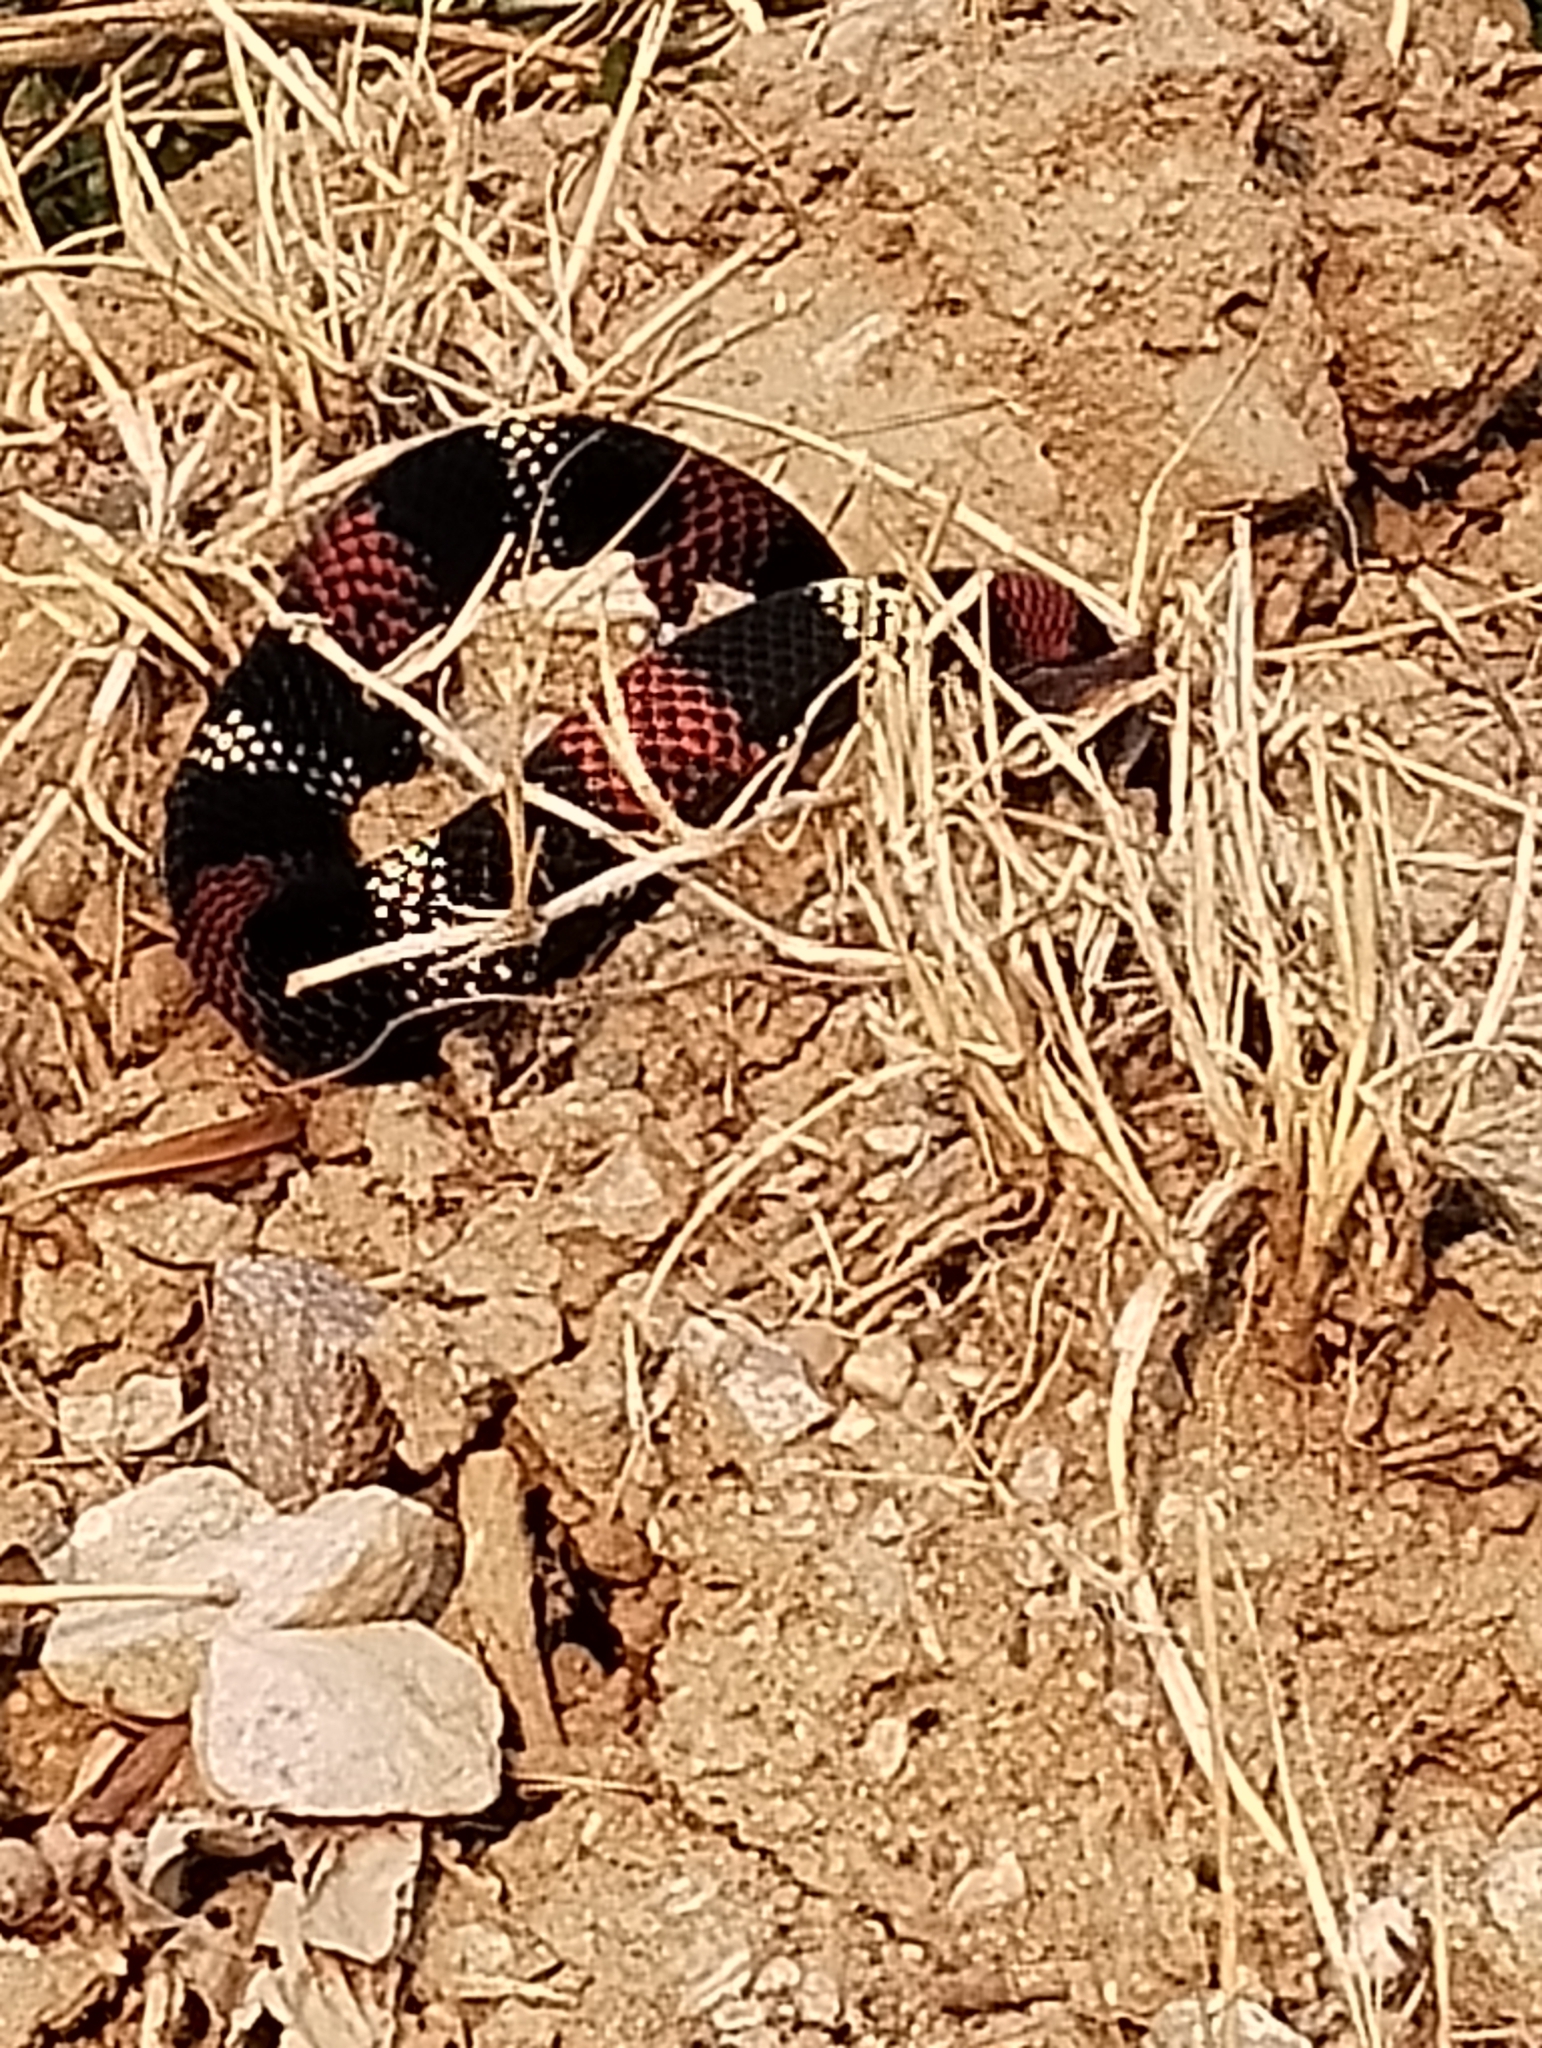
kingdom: Animalia
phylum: Chordata
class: Squamata
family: Colubridae
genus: Xenodon
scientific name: Xenodon pulcher
